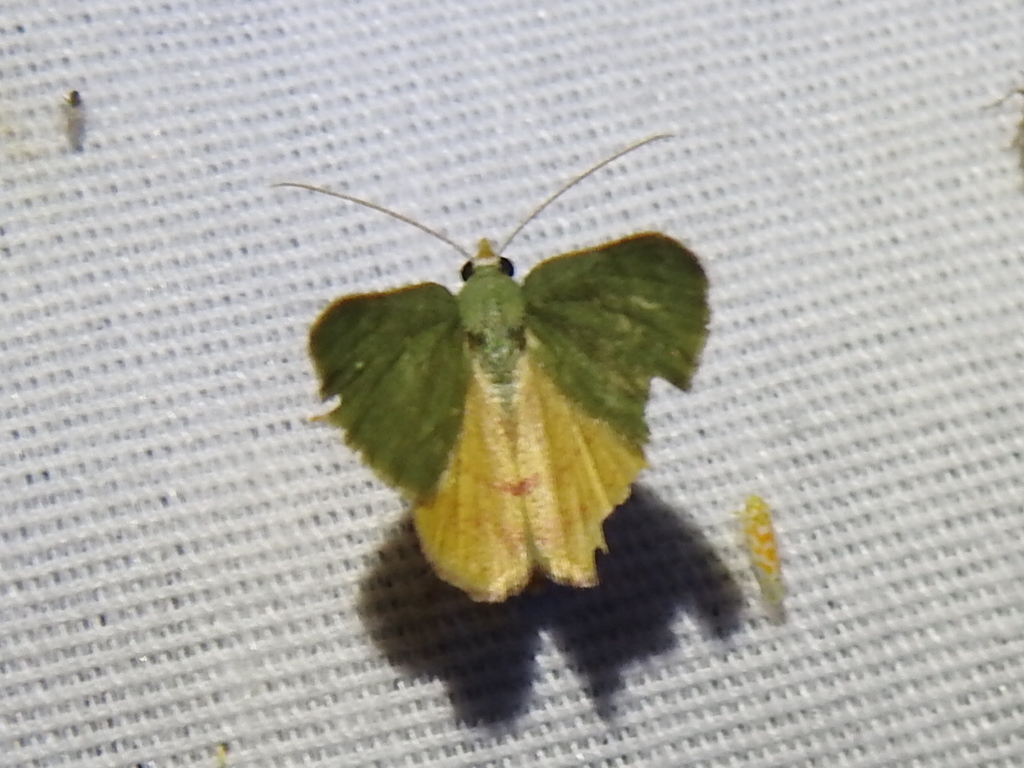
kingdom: Animalia
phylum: Arthropoda
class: Insecta
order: Lepidoptera
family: Geometridae
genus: Chloraspilates
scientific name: Chloraspilates bicoloraria
